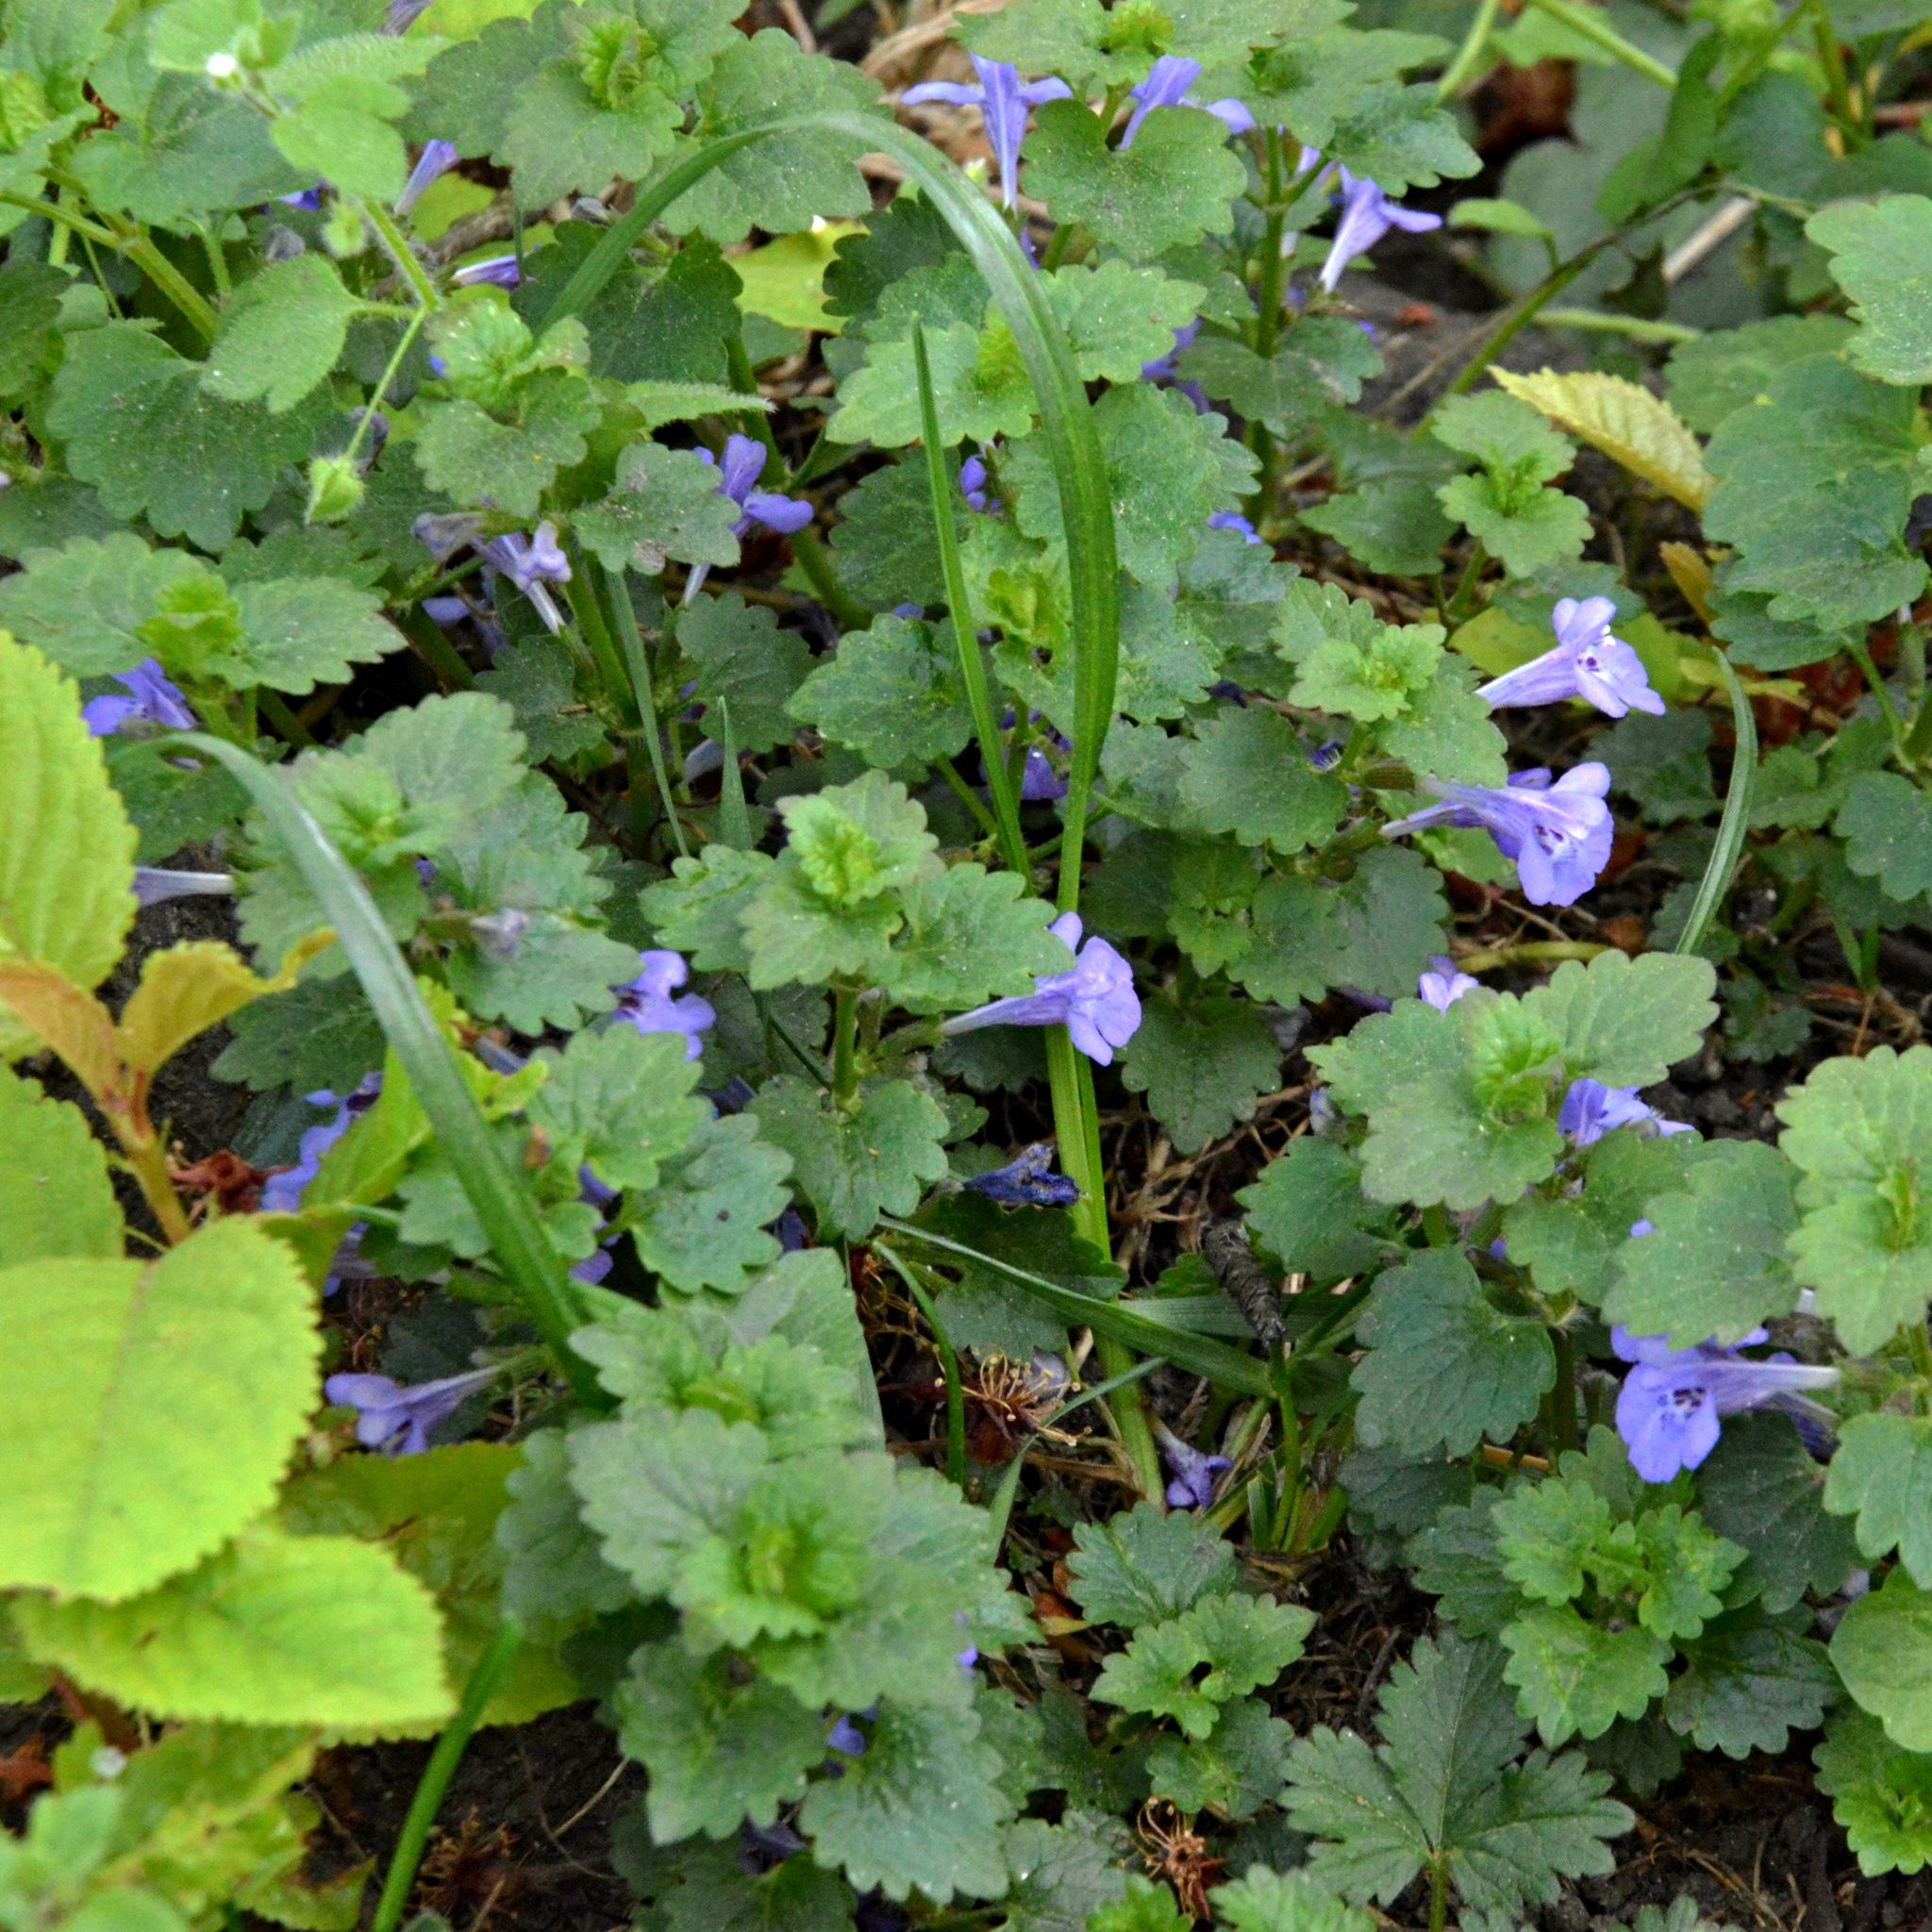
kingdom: Plantae
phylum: Tracheophyta
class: Magnoliopsida
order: Lamiales
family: Lamiaceae
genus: Glechoma
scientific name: Glechoma hederacea
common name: Ground ivy
